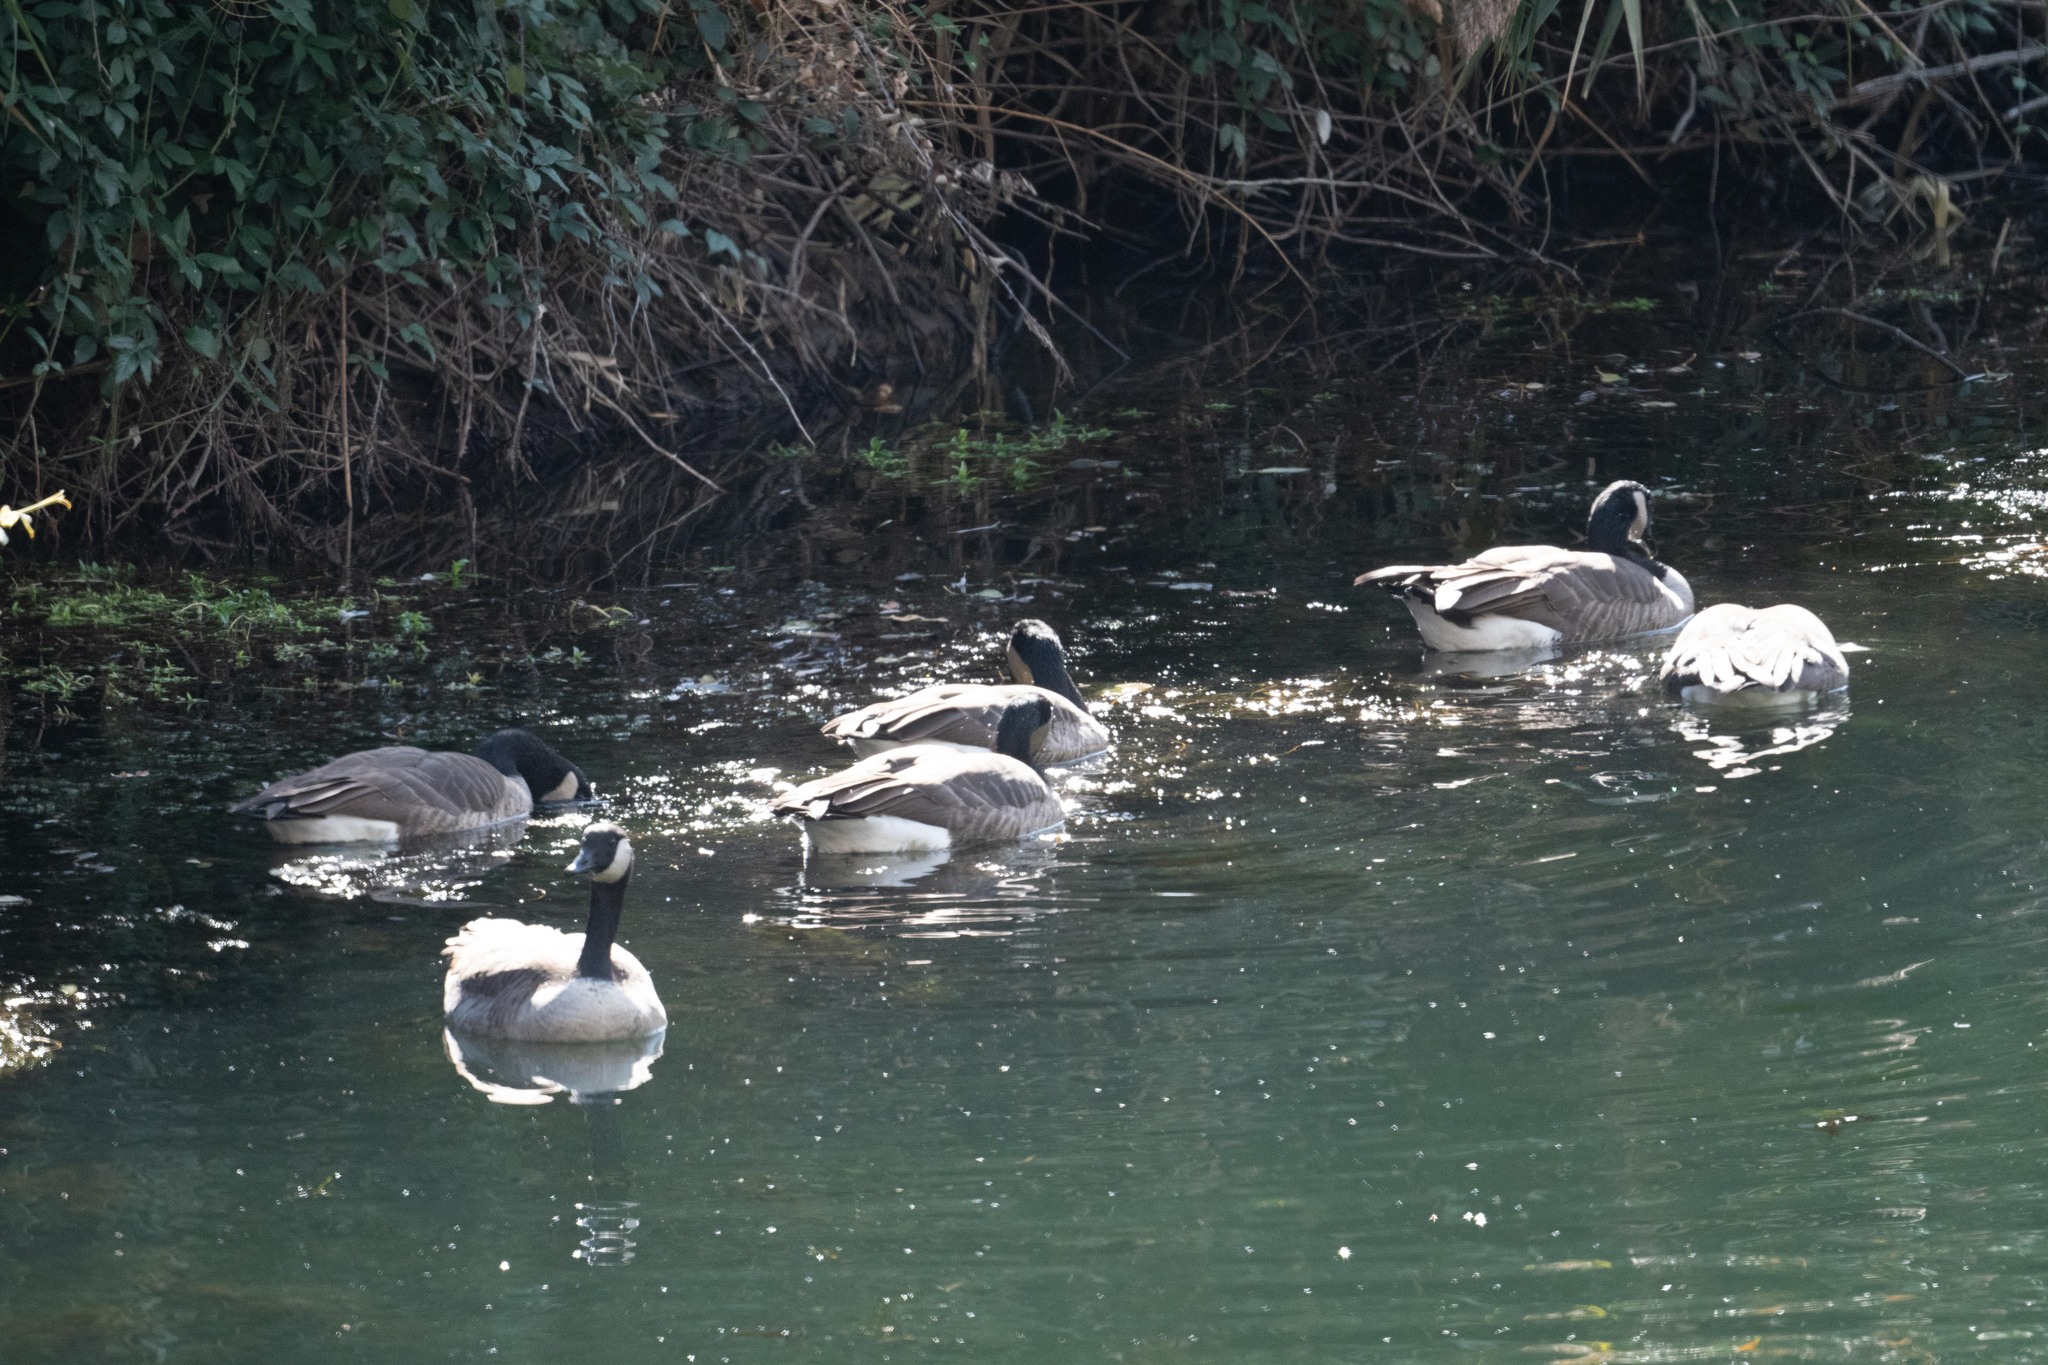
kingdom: Animalia
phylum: Chordata
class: Aves
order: Anseriformes
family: Anatidae
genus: Branta
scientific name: Branta canadensis
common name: Canada goose
